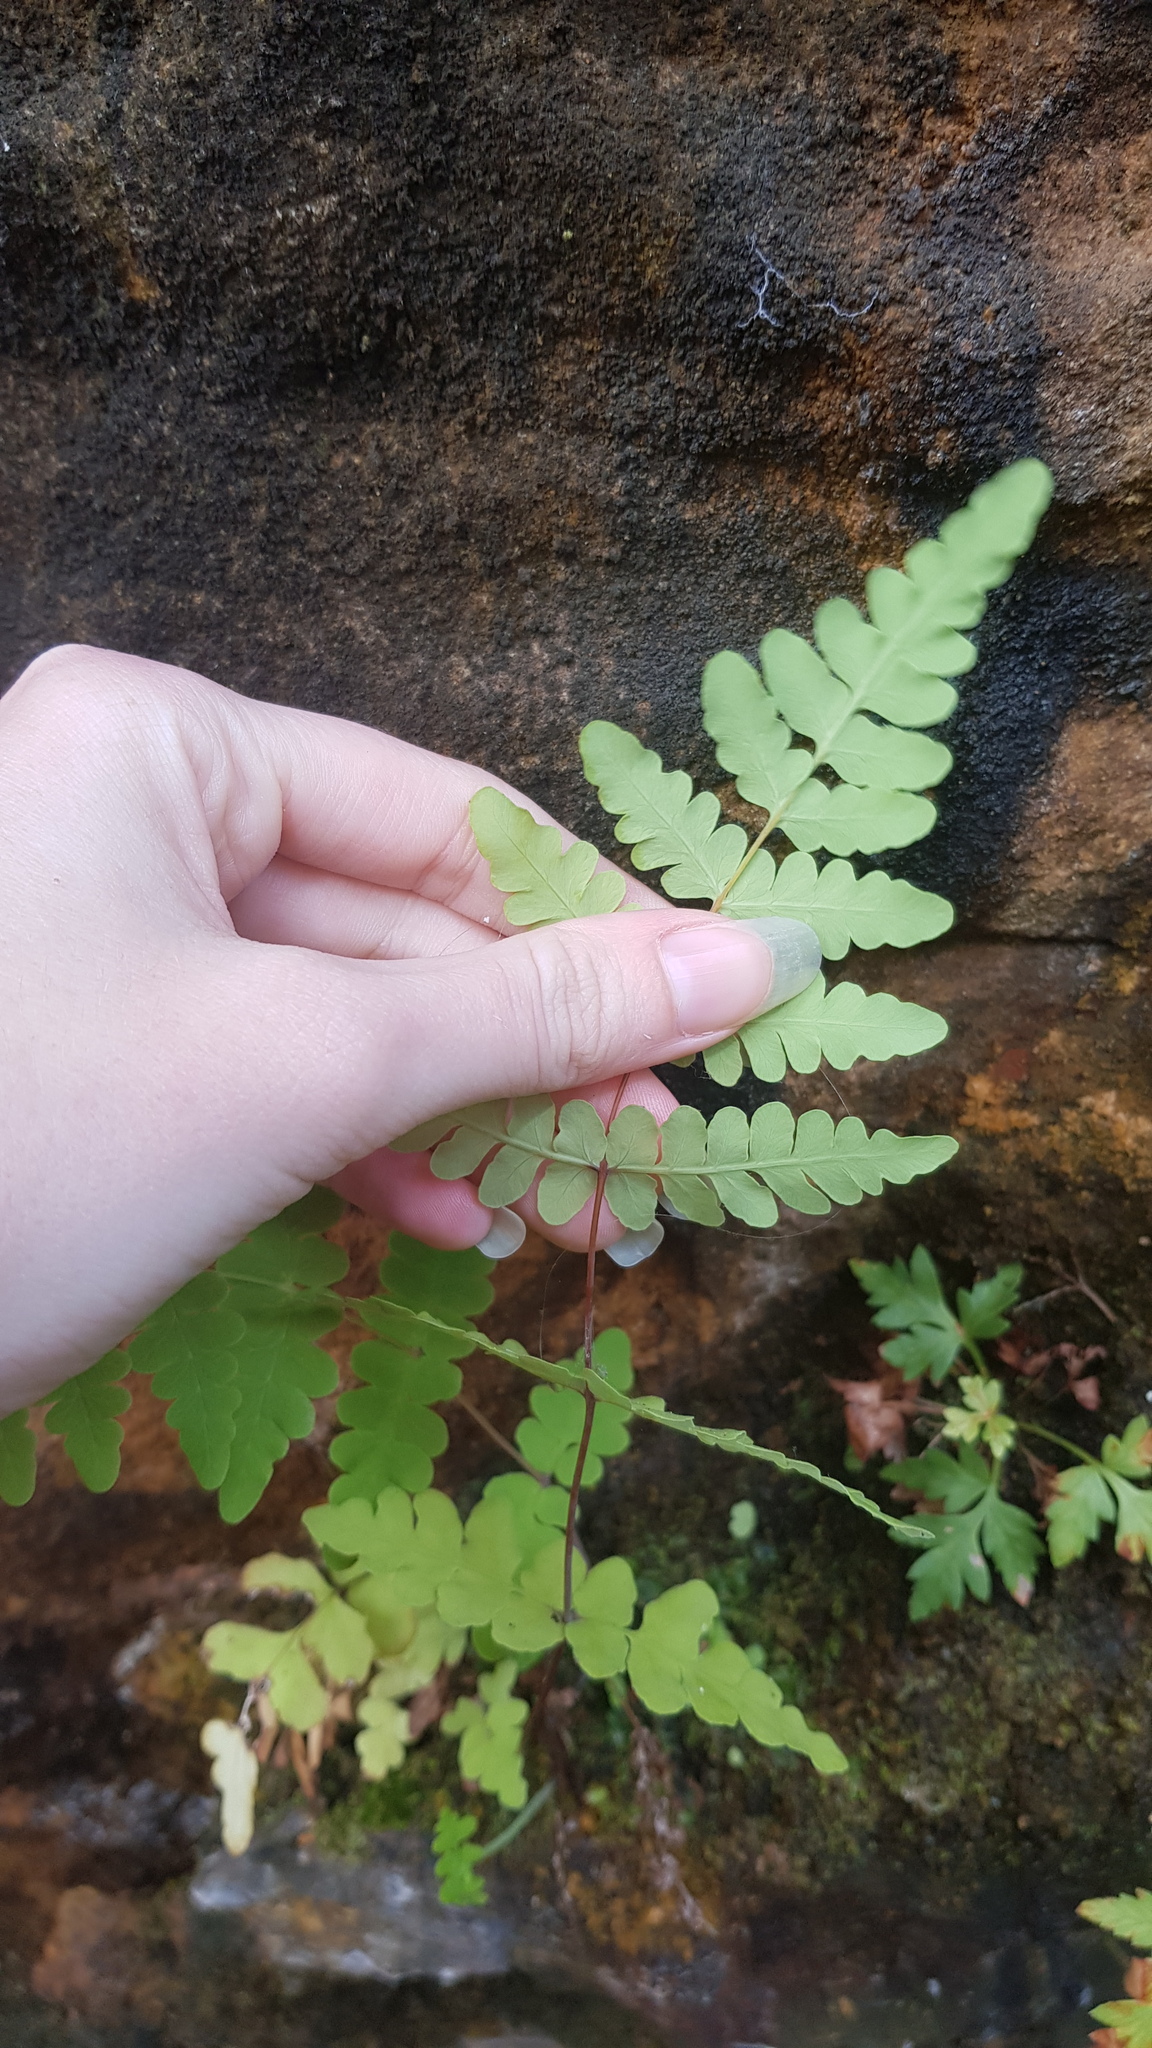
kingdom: Plantae
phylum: Tracheophyta
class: Polypodiopsida
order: Polypodiales
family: Dennstaedtiaceae
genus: Histiopteris
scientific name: Histiopteris incisa
